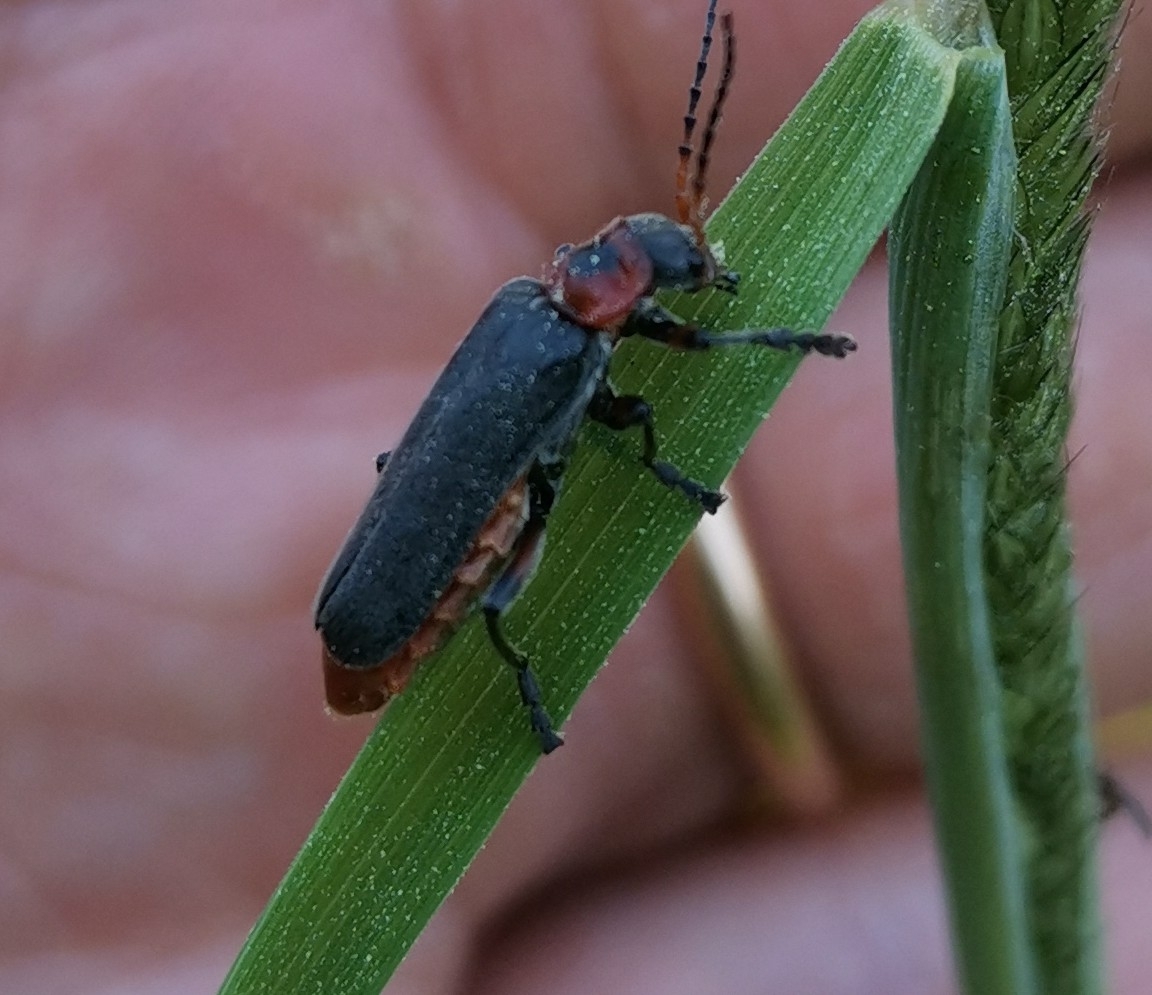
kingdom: Animalia
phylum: Arthropoda
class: Insecta
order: Coleoptera
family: Cantharidae
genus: Cantharis
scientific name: Cantharis rustica
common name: Soldier beetle
